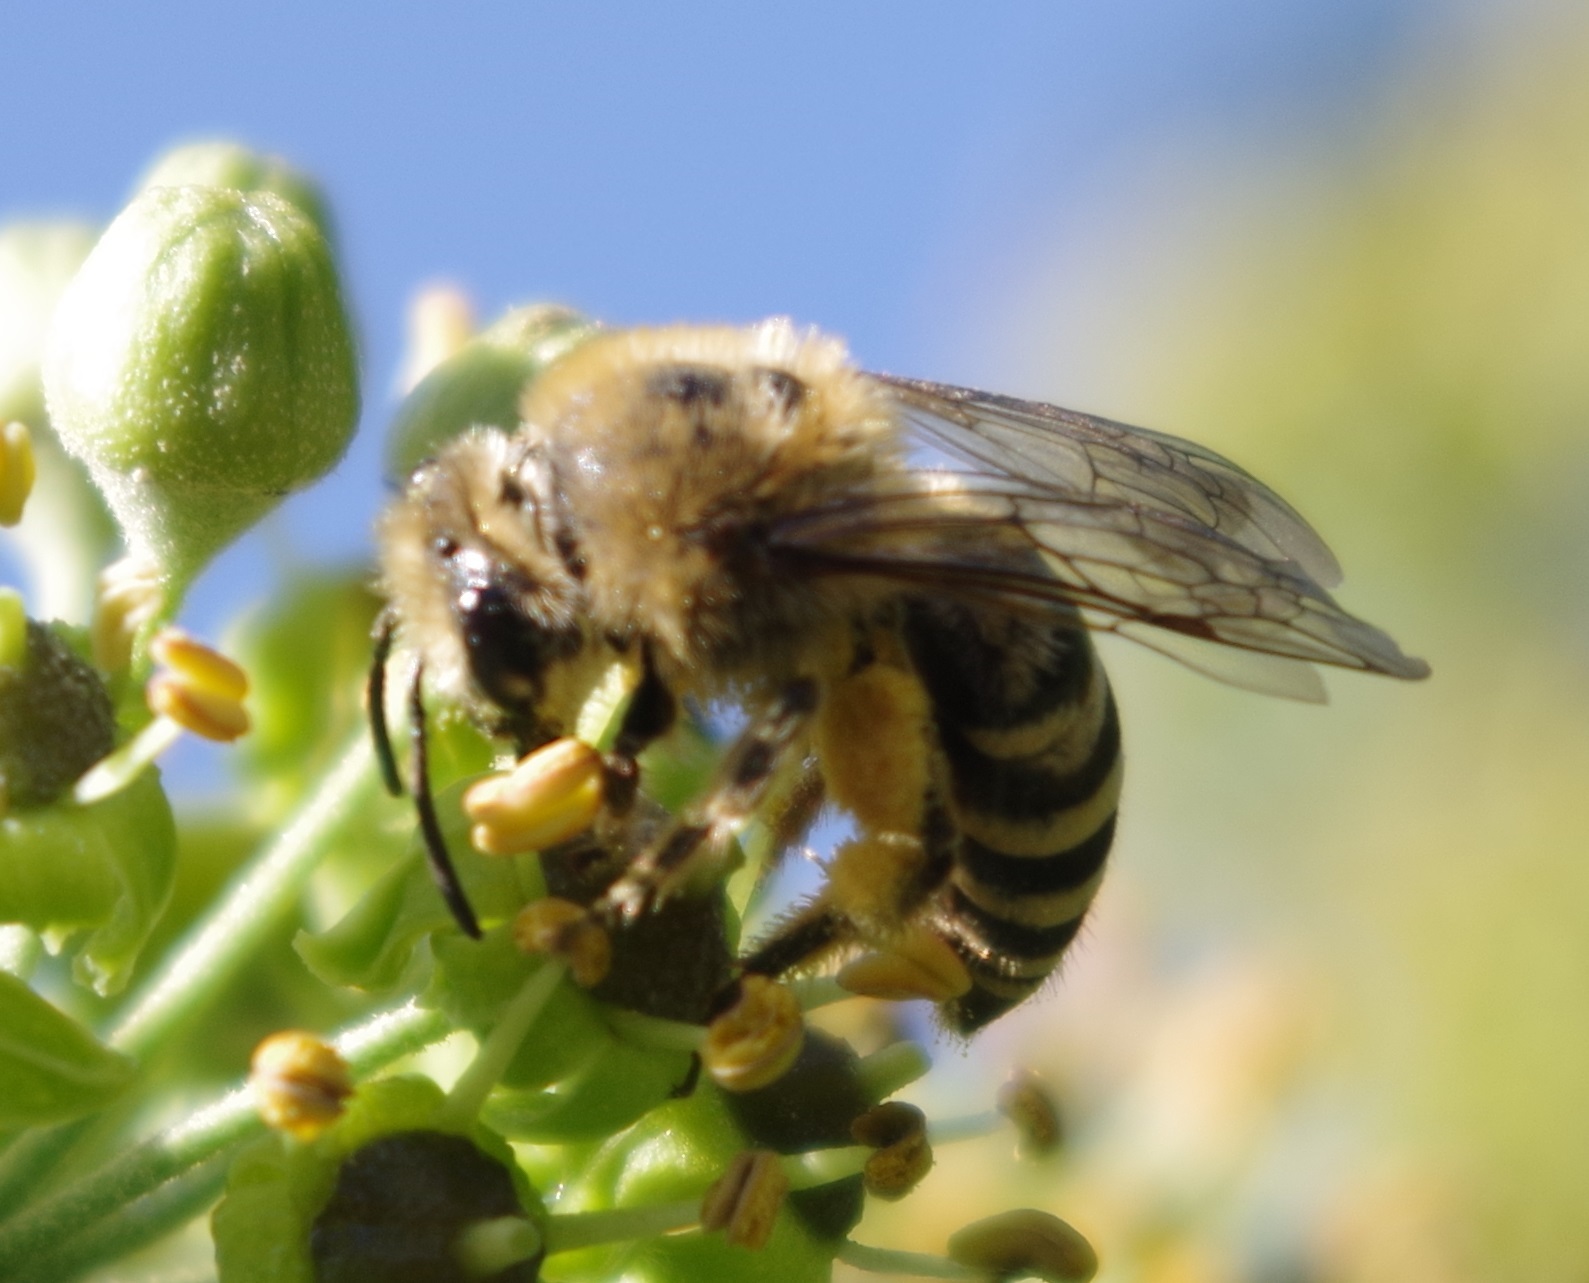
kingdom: Animalia
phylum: Arthropoda
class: Insecta
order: Hymenoptera
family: Colletidae
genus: Colletes
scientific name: Colletes hederae
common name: Ivy bee
